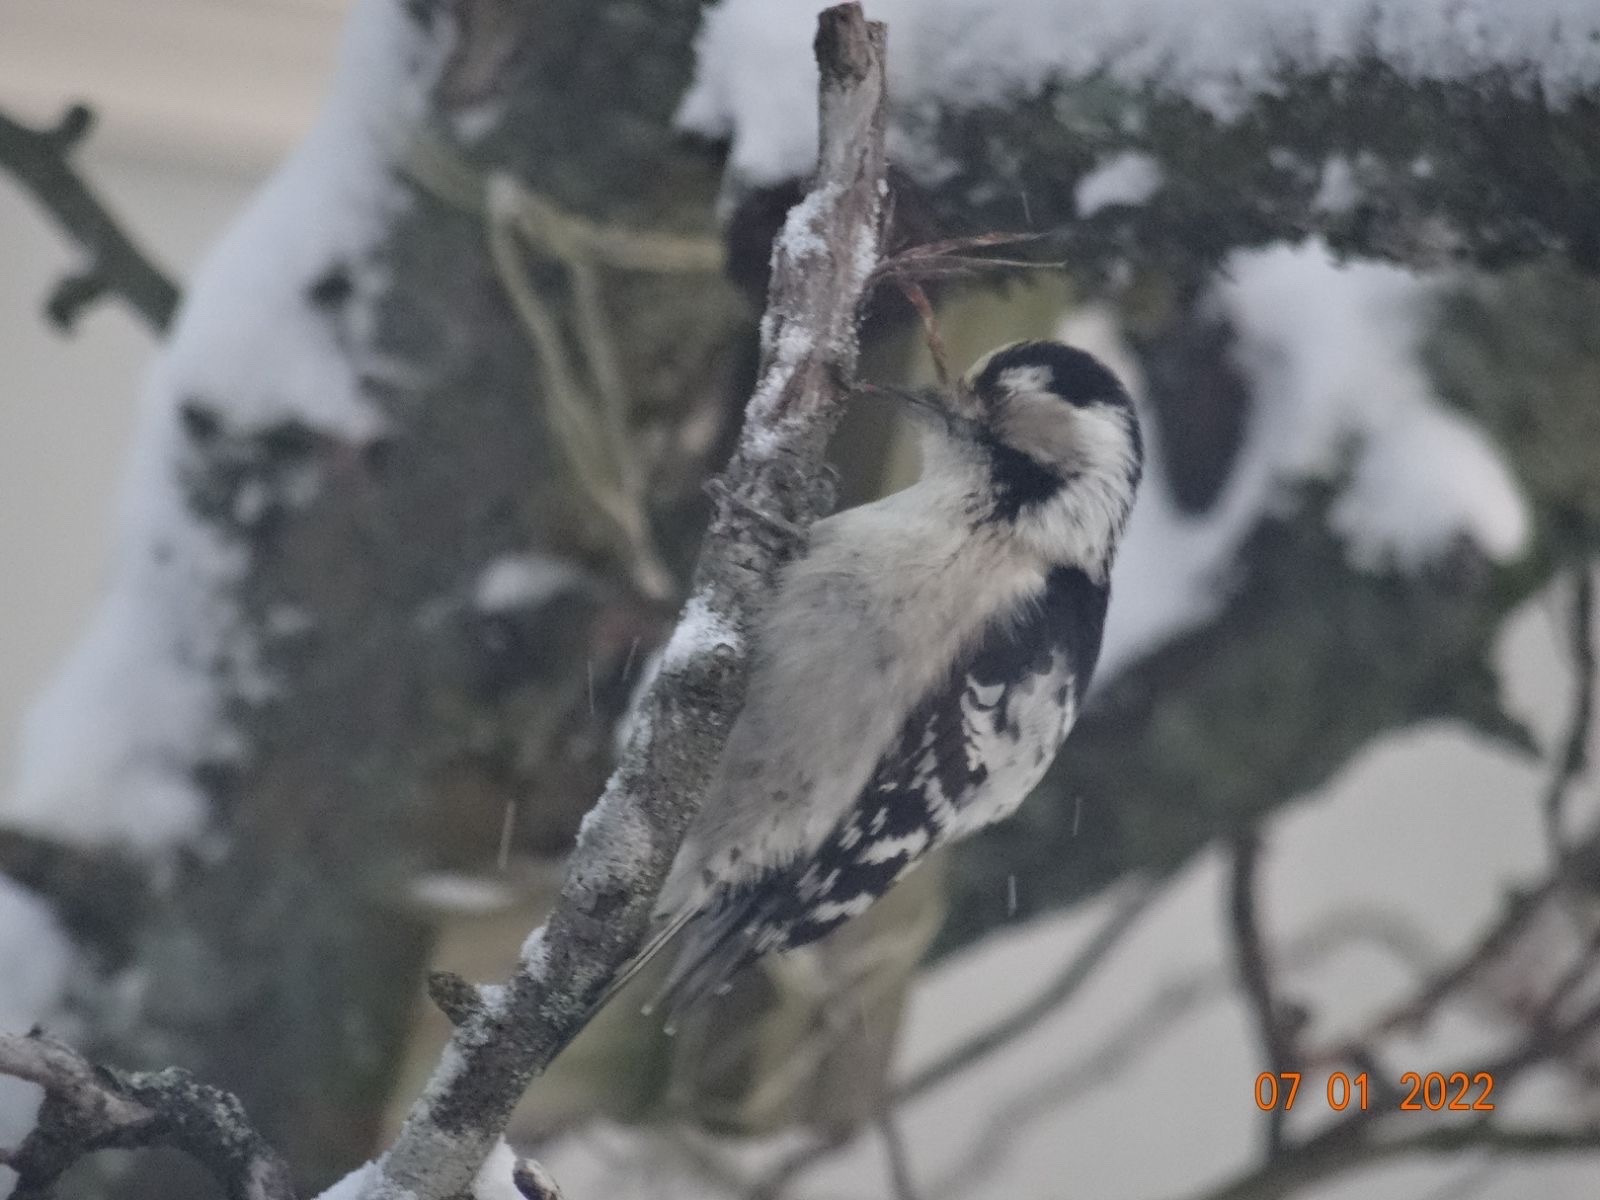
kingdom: Animalia
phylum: Chordata
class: Aves
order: Piciformes
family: Picidae
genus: Dryobates
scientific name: Dryobates minor
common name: Lesser spotted woodpecker
